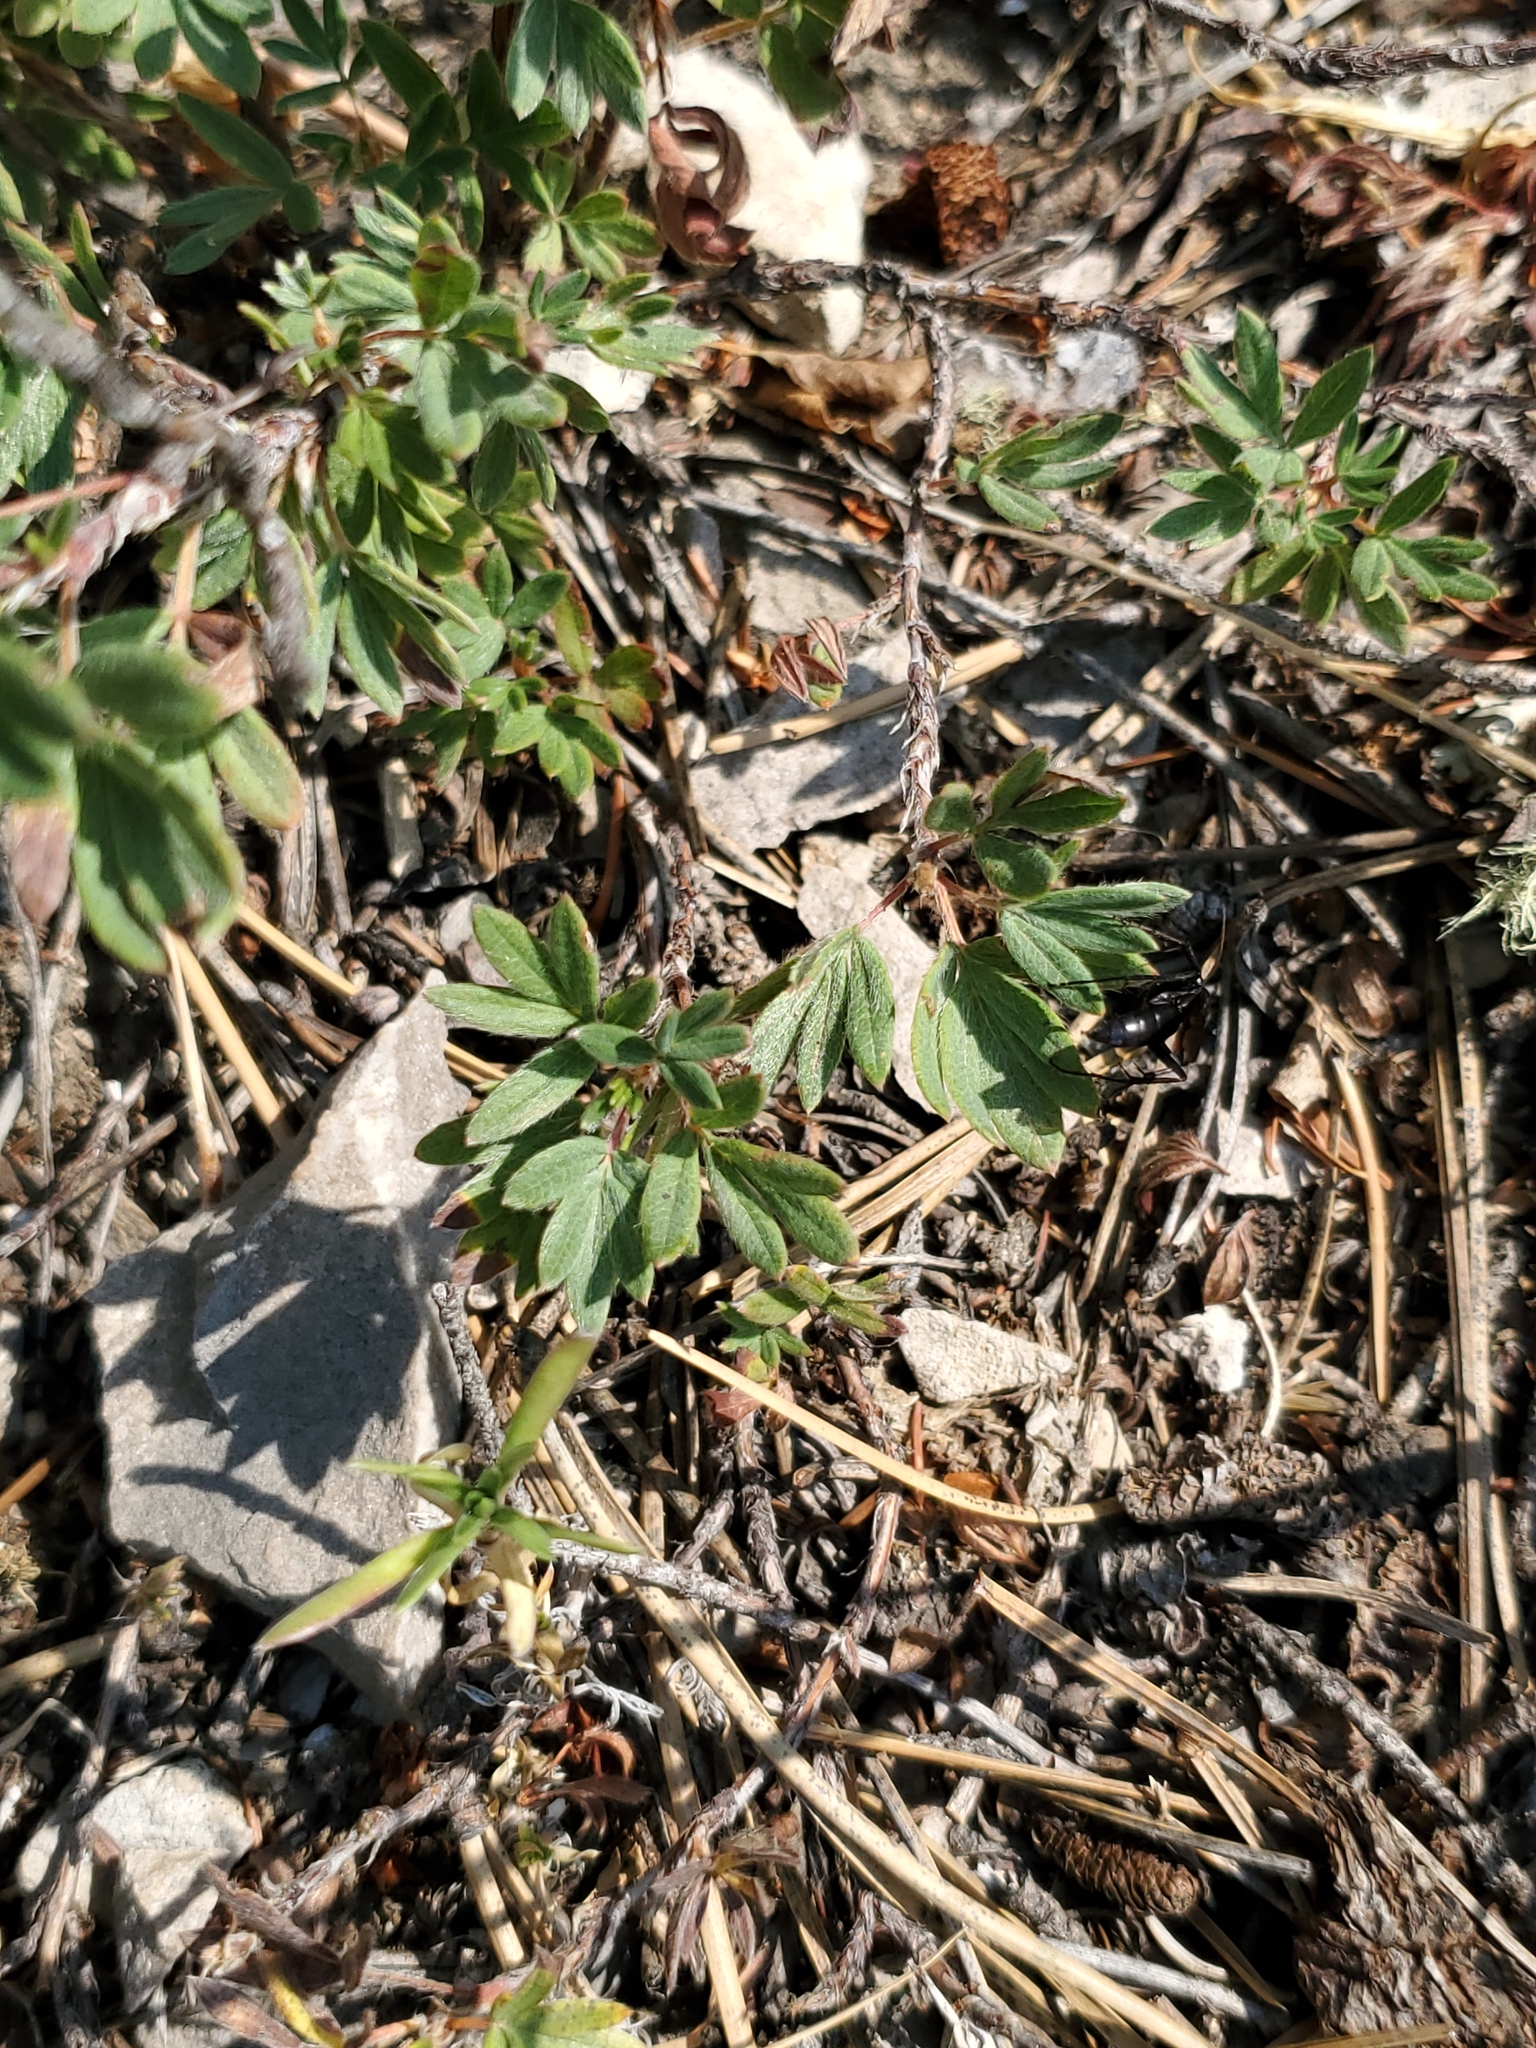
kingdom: Plantae
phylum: Tracheophyta
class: Magnoliopsida
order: Rosales
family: Rosaceae
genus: Dasiphora
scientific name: Dasiphora fruticosa
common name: Shrubby cinquefoil
